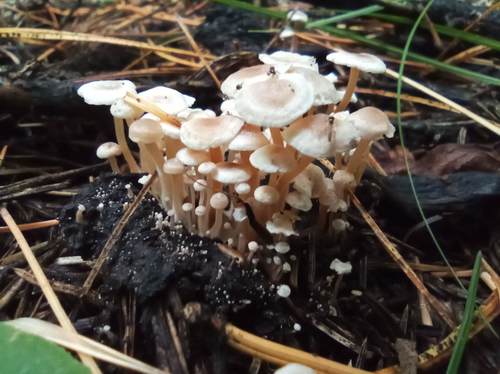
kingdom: Fungi
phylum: Basidiomycota
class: Agaricomycetes
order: Agaricales
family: Tricholomataceae
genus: Collybia
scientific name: Collybia cirrhata
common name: Piggyback shanklet
